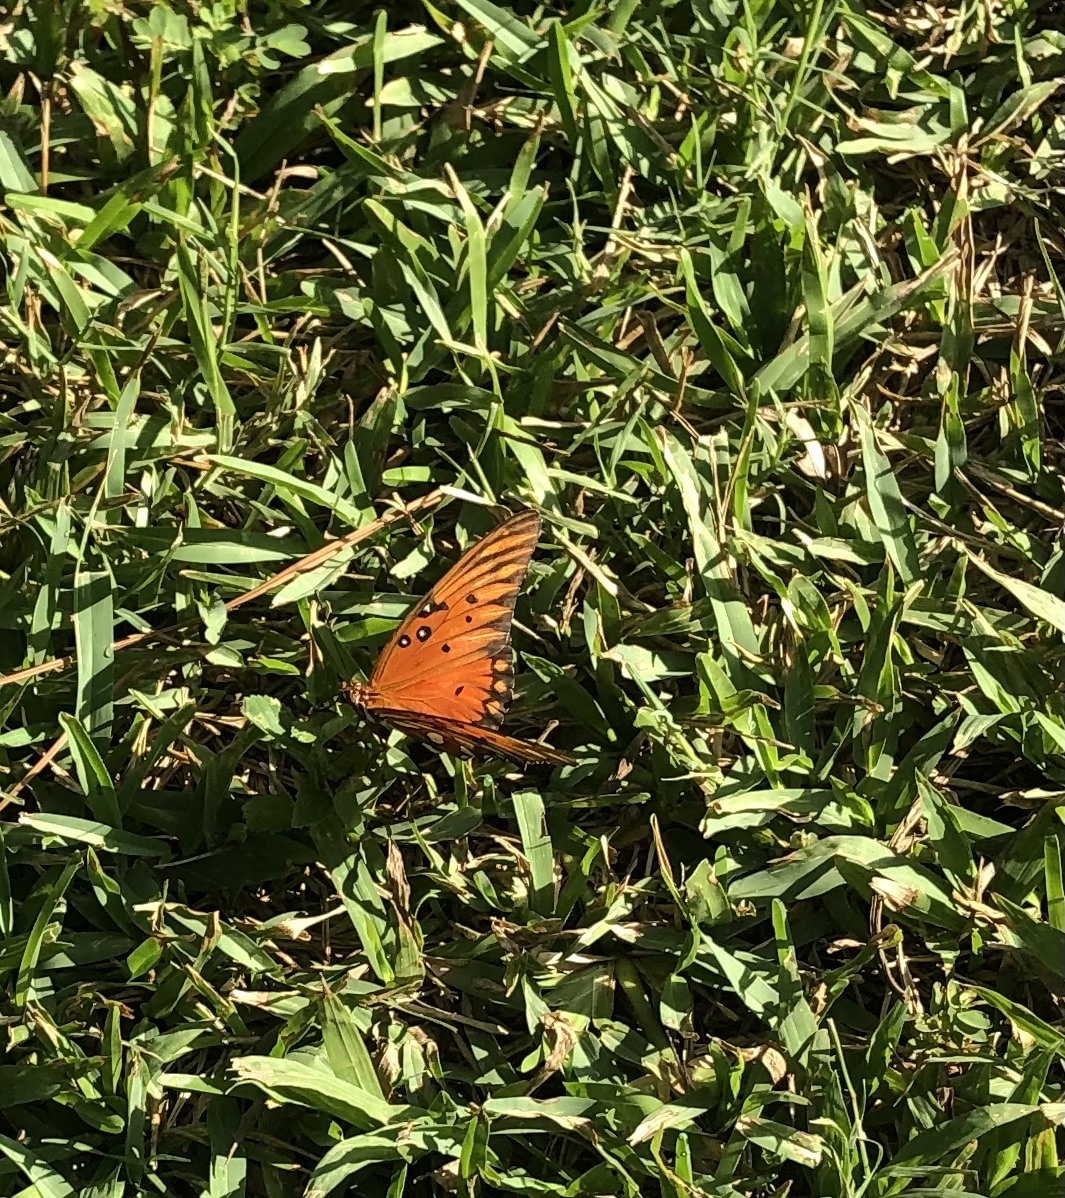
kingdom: Animalia
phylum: Arthropoda
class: Insecta
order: Lepidoptera
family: Nymphalidae
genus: Dione
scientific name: Dione vanillae
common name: Gulf fritillary
